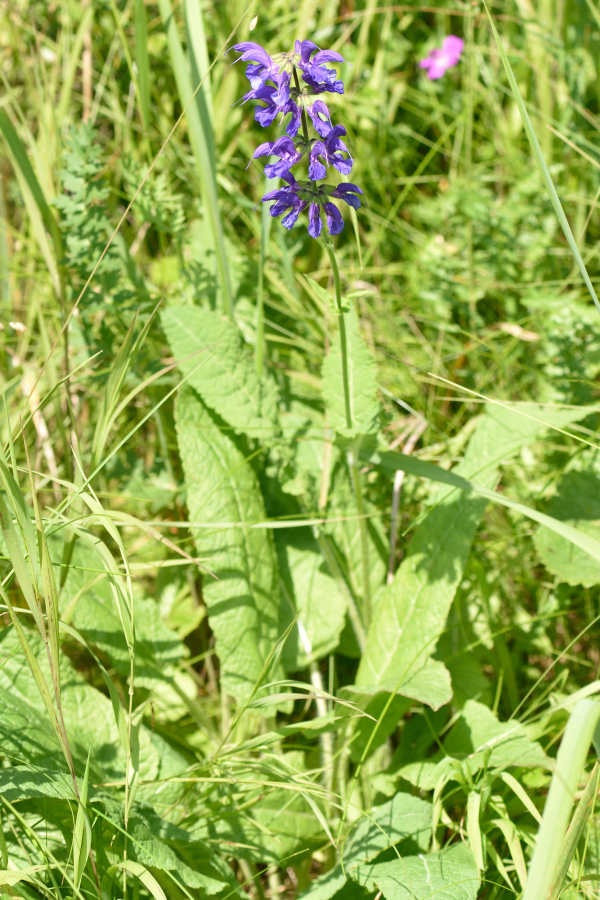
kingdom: Plantae
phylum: Tracheophyta
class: Magnoliopsida
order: Lamiales
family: Lamiaceae
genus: Salvia
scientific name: Salvia pratensis
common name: Meadow sage
